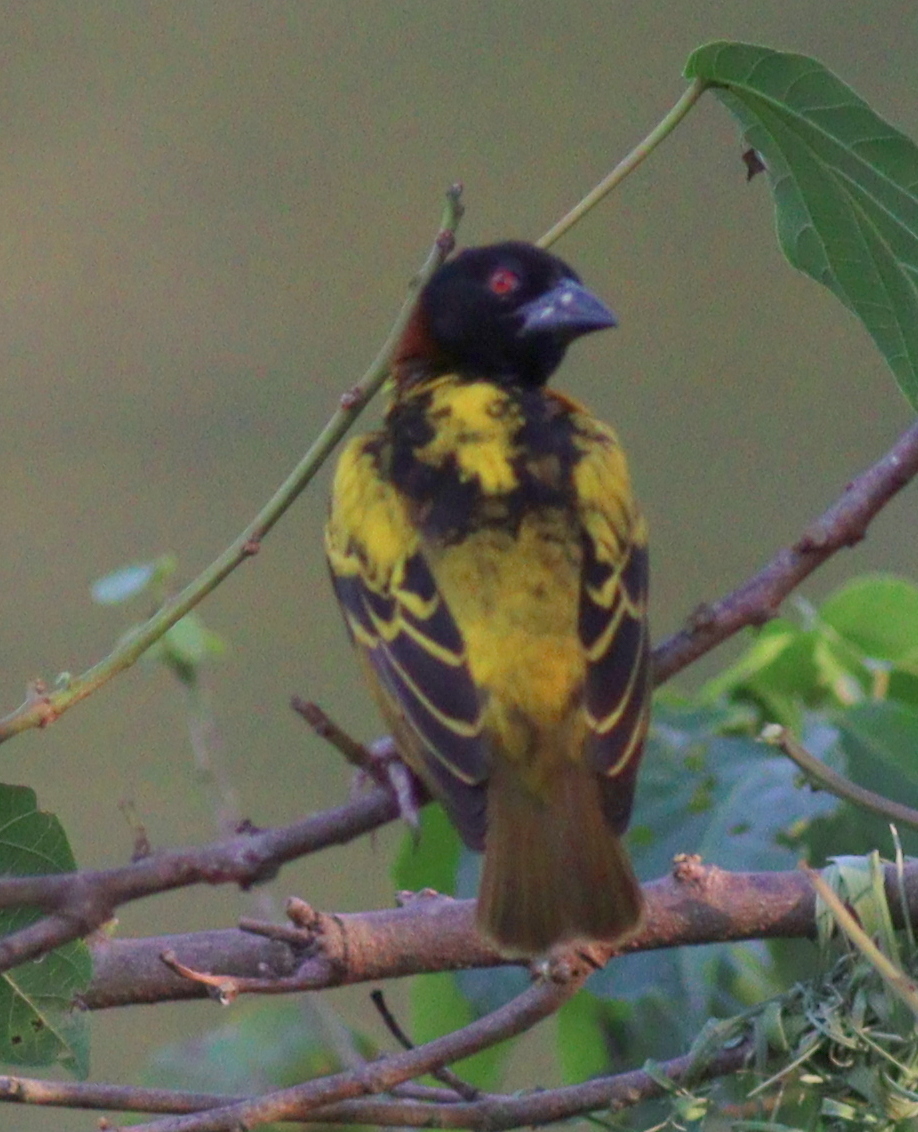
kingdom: Animalia
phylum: Chordata
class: Aves
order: Passeriformes
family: Ploceidae
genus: Ploceus
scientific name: Ploceus cucullatus
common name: Village weaver
